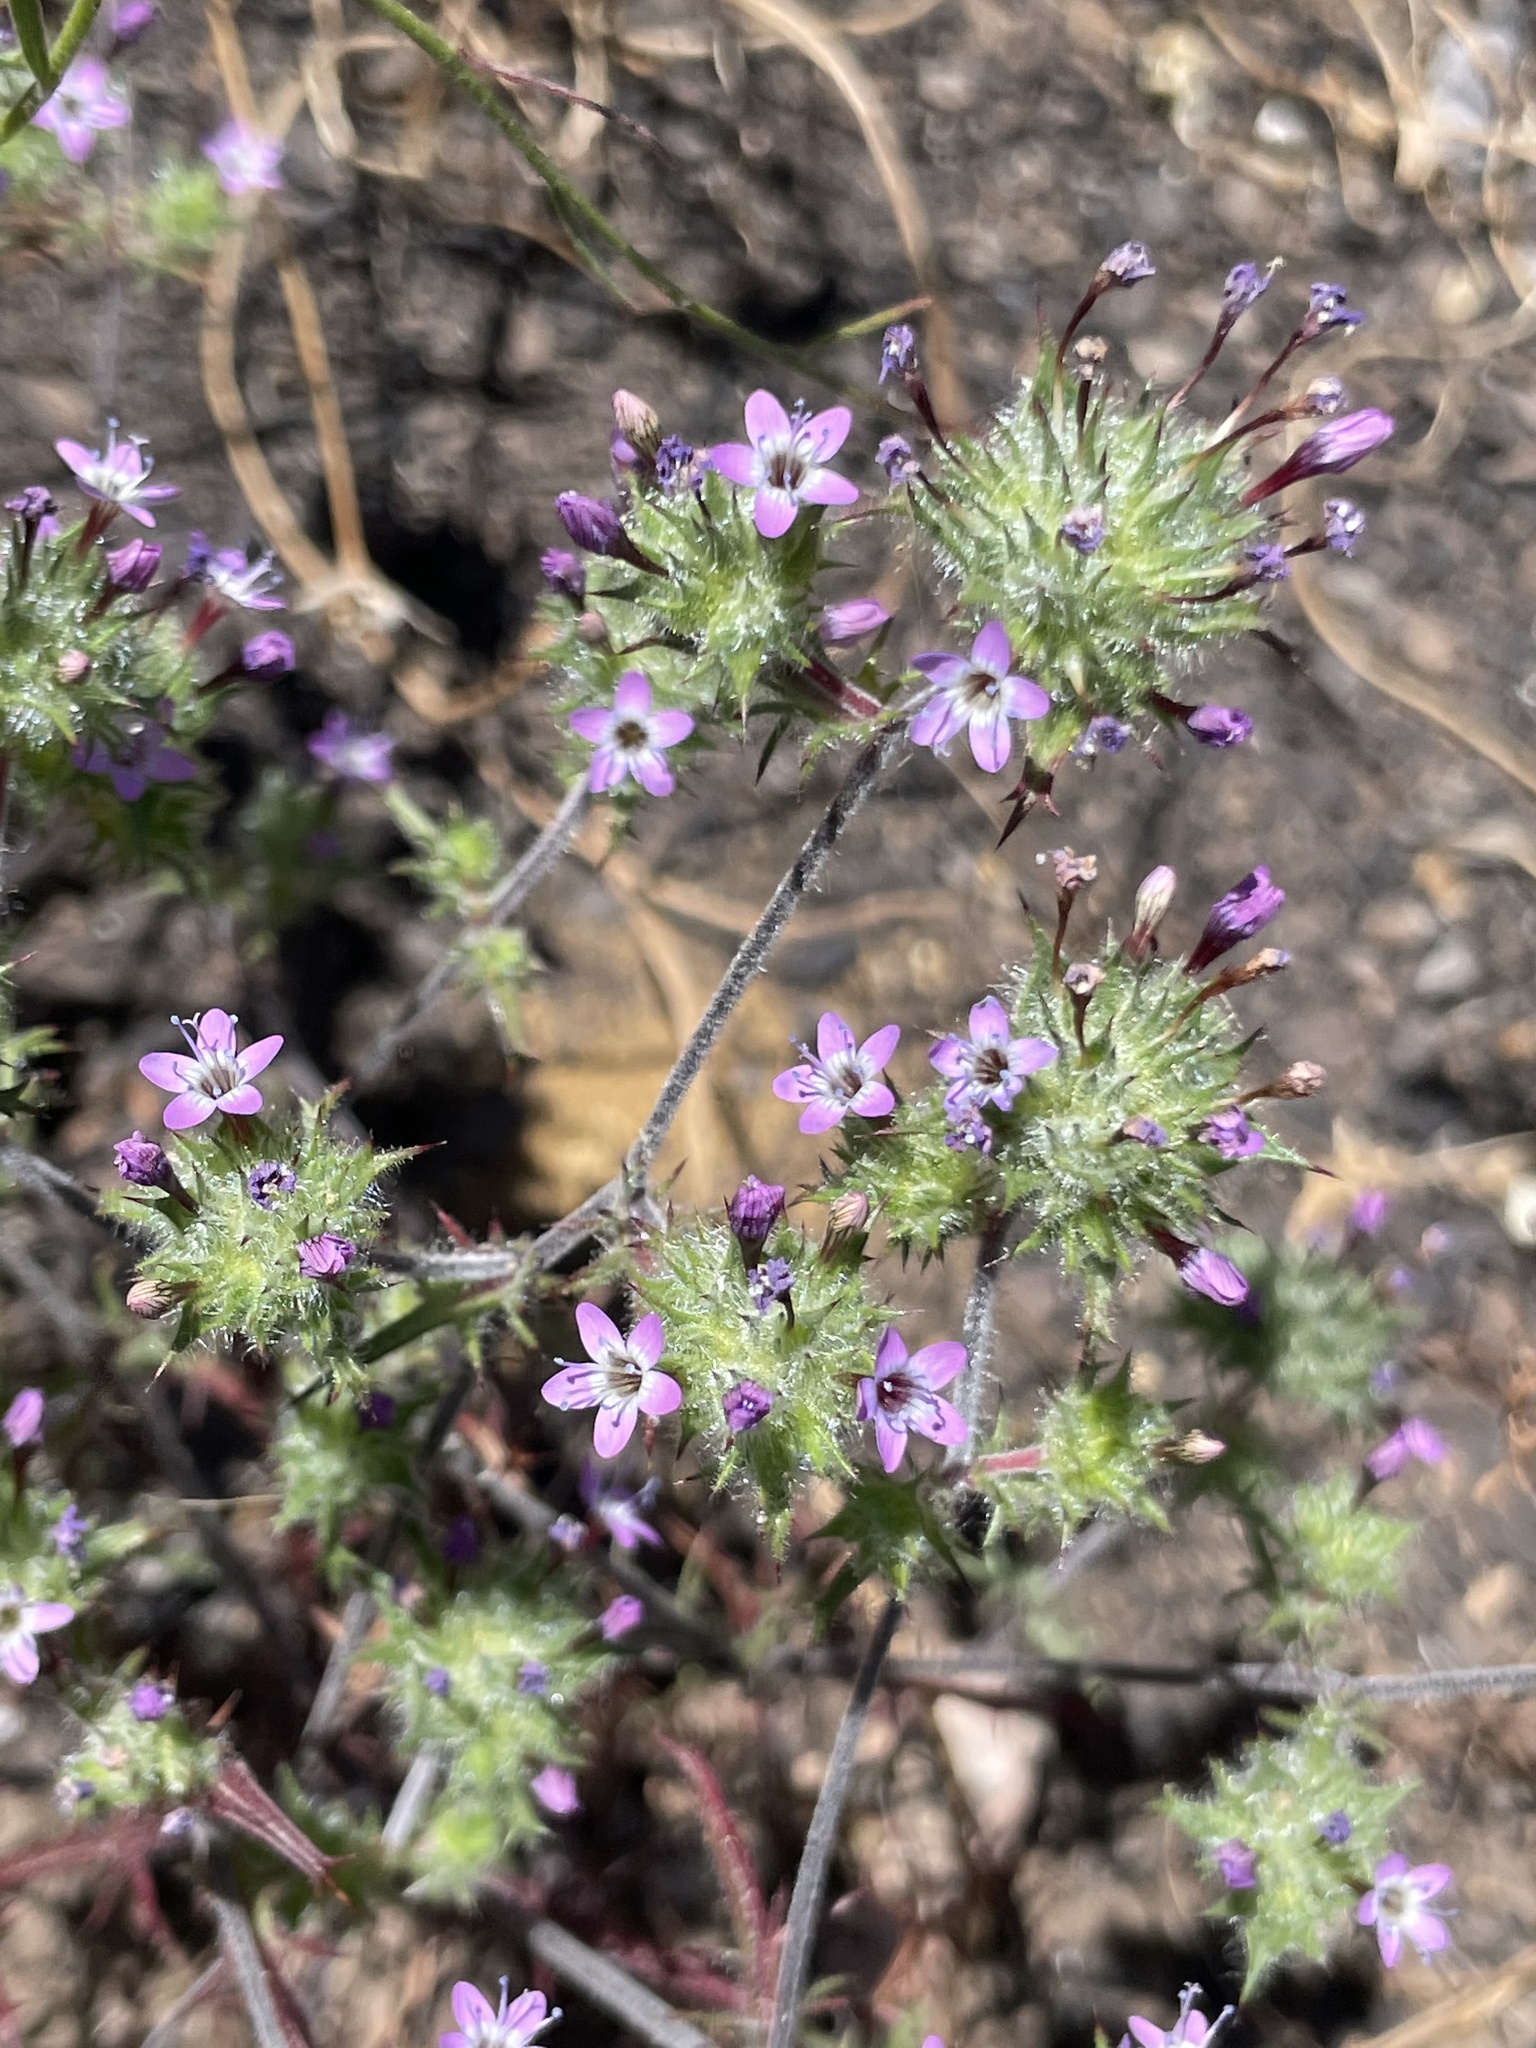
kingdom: Plantae
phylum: Tracheophyta
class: Magnoliopsida
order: Ericales
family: Polemoniaceae
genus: Navarretia
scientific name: Navarretia hamata
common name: Hooked navarretia
